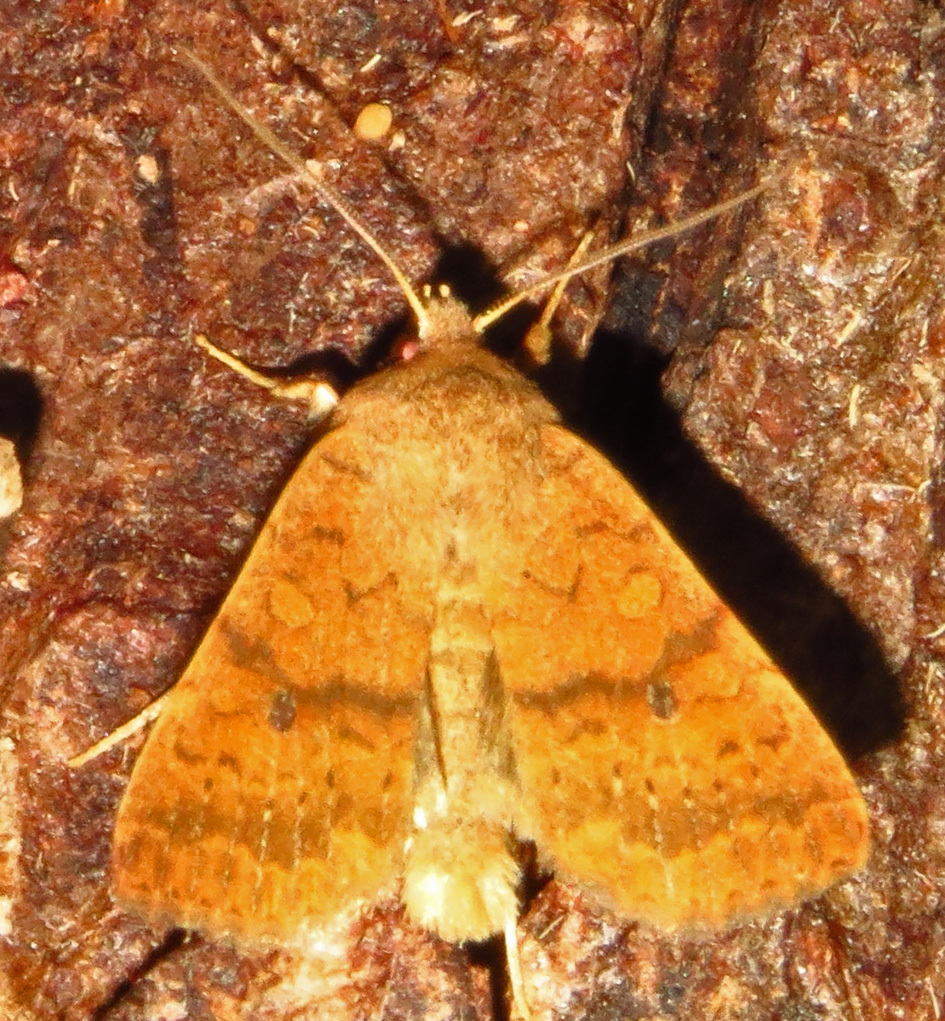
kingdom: Animalia
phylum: Arthropoda
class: Insecta
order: Lepidoptera
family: Noctuidae
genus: Agrochola
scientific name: Agrochola bicolorago
